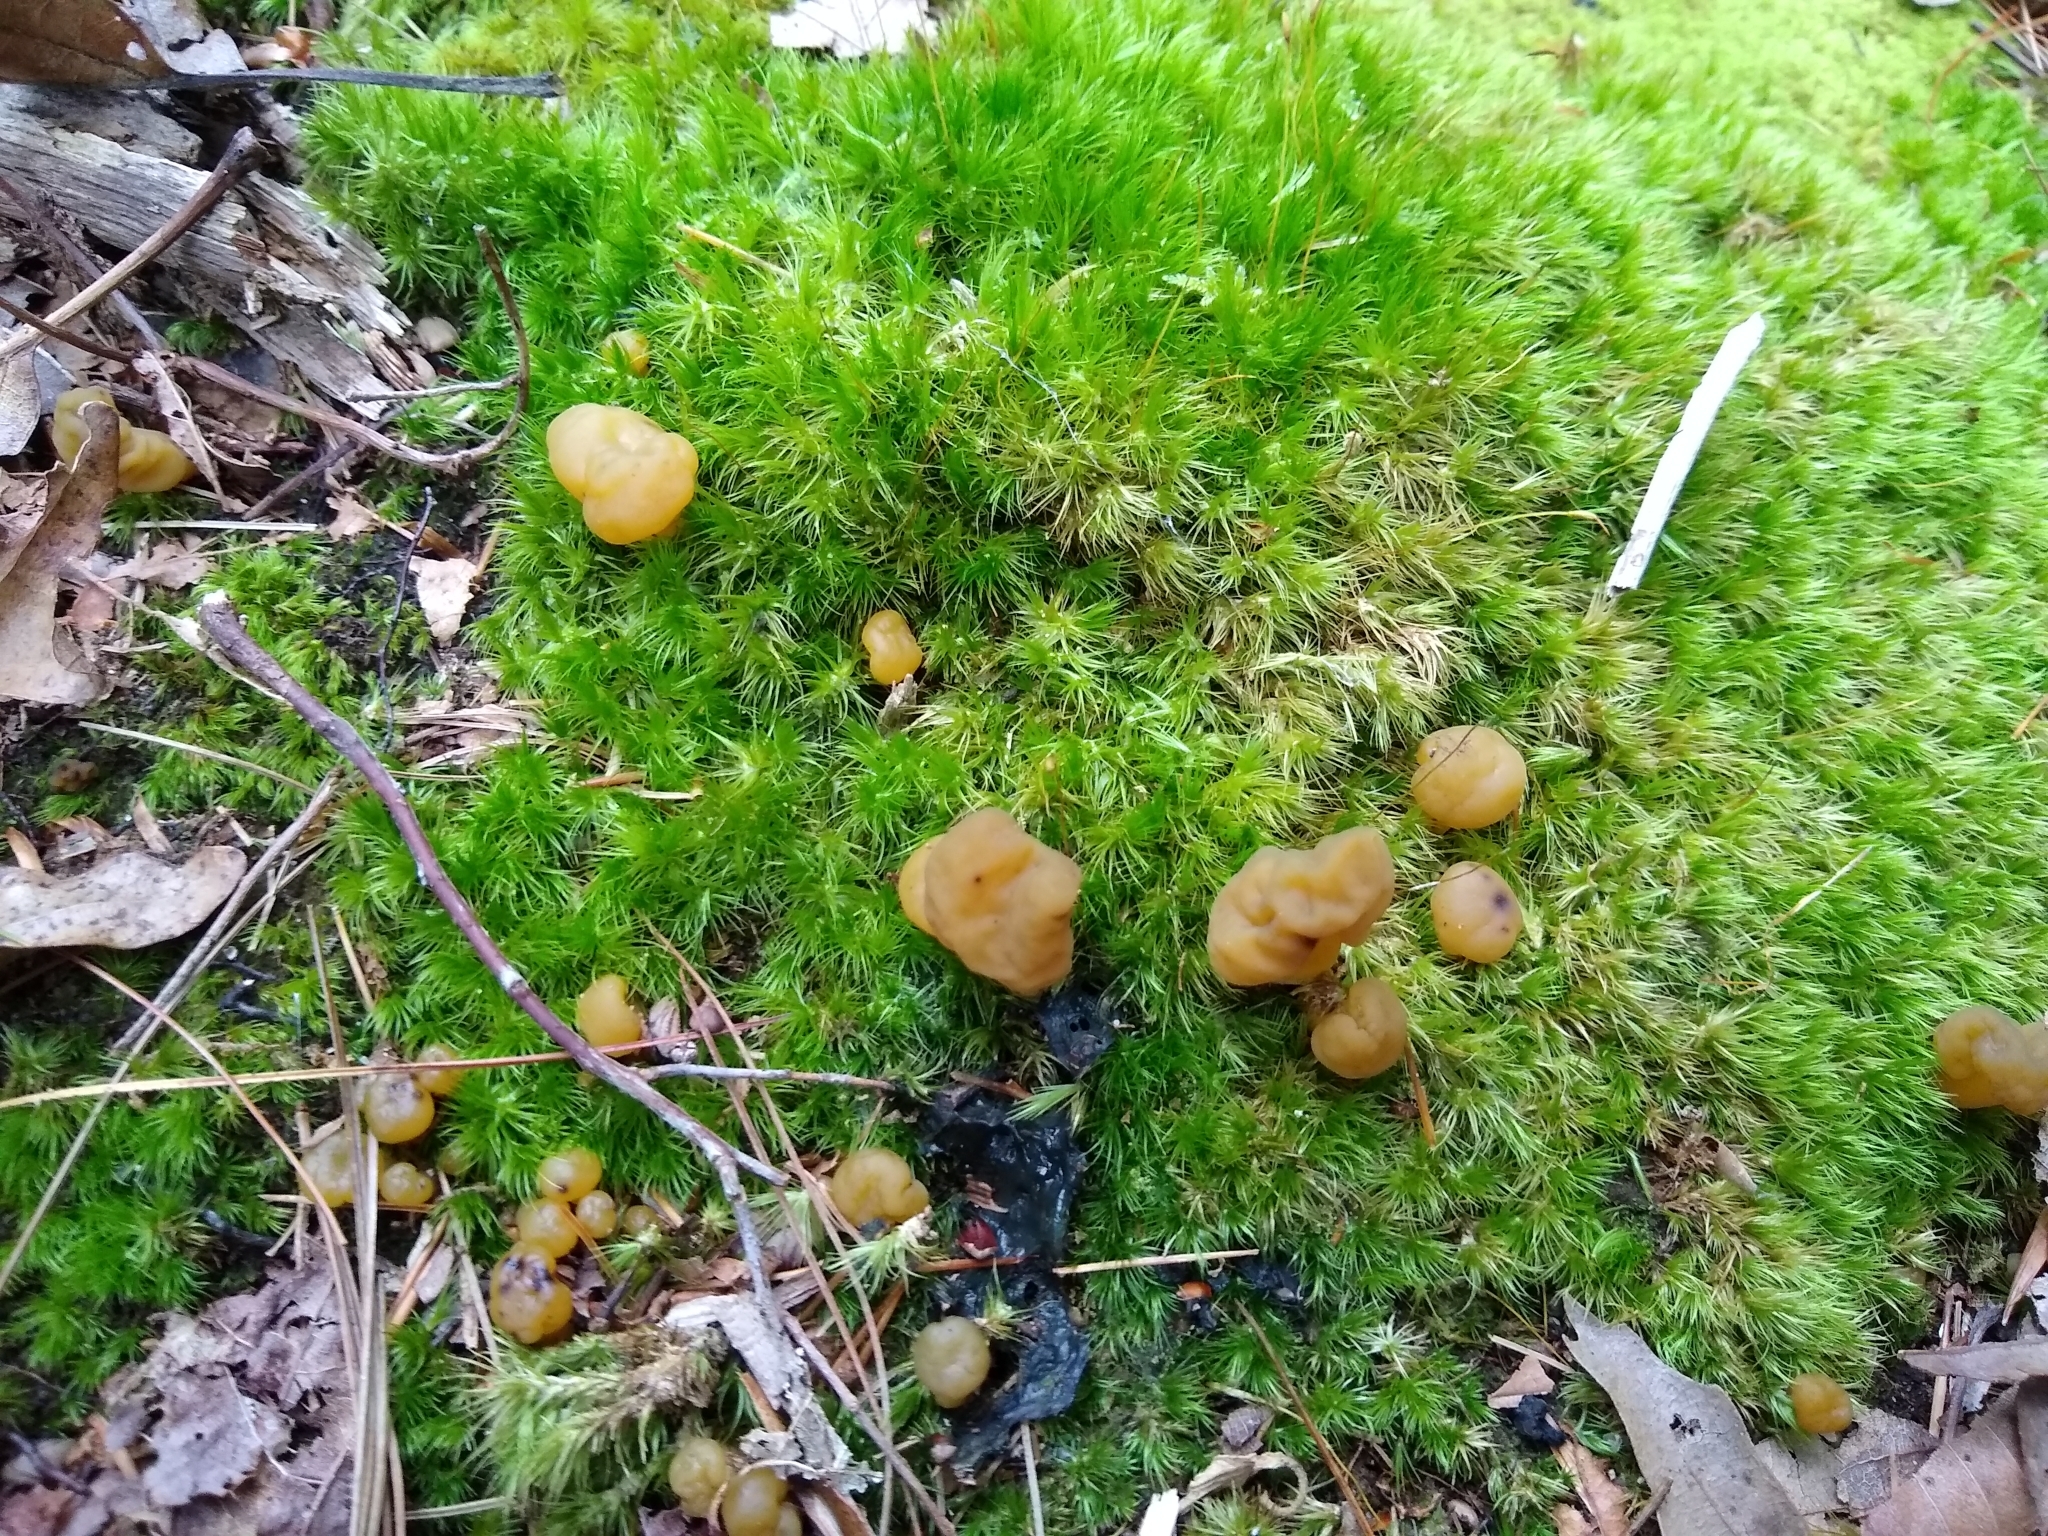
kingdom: Fungi
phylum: Ascomycota
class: Leotiomycetes
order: Leotiales
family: Leotiaceae
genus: Leotia
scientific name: Leotia lubrica
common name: Jellybaby
